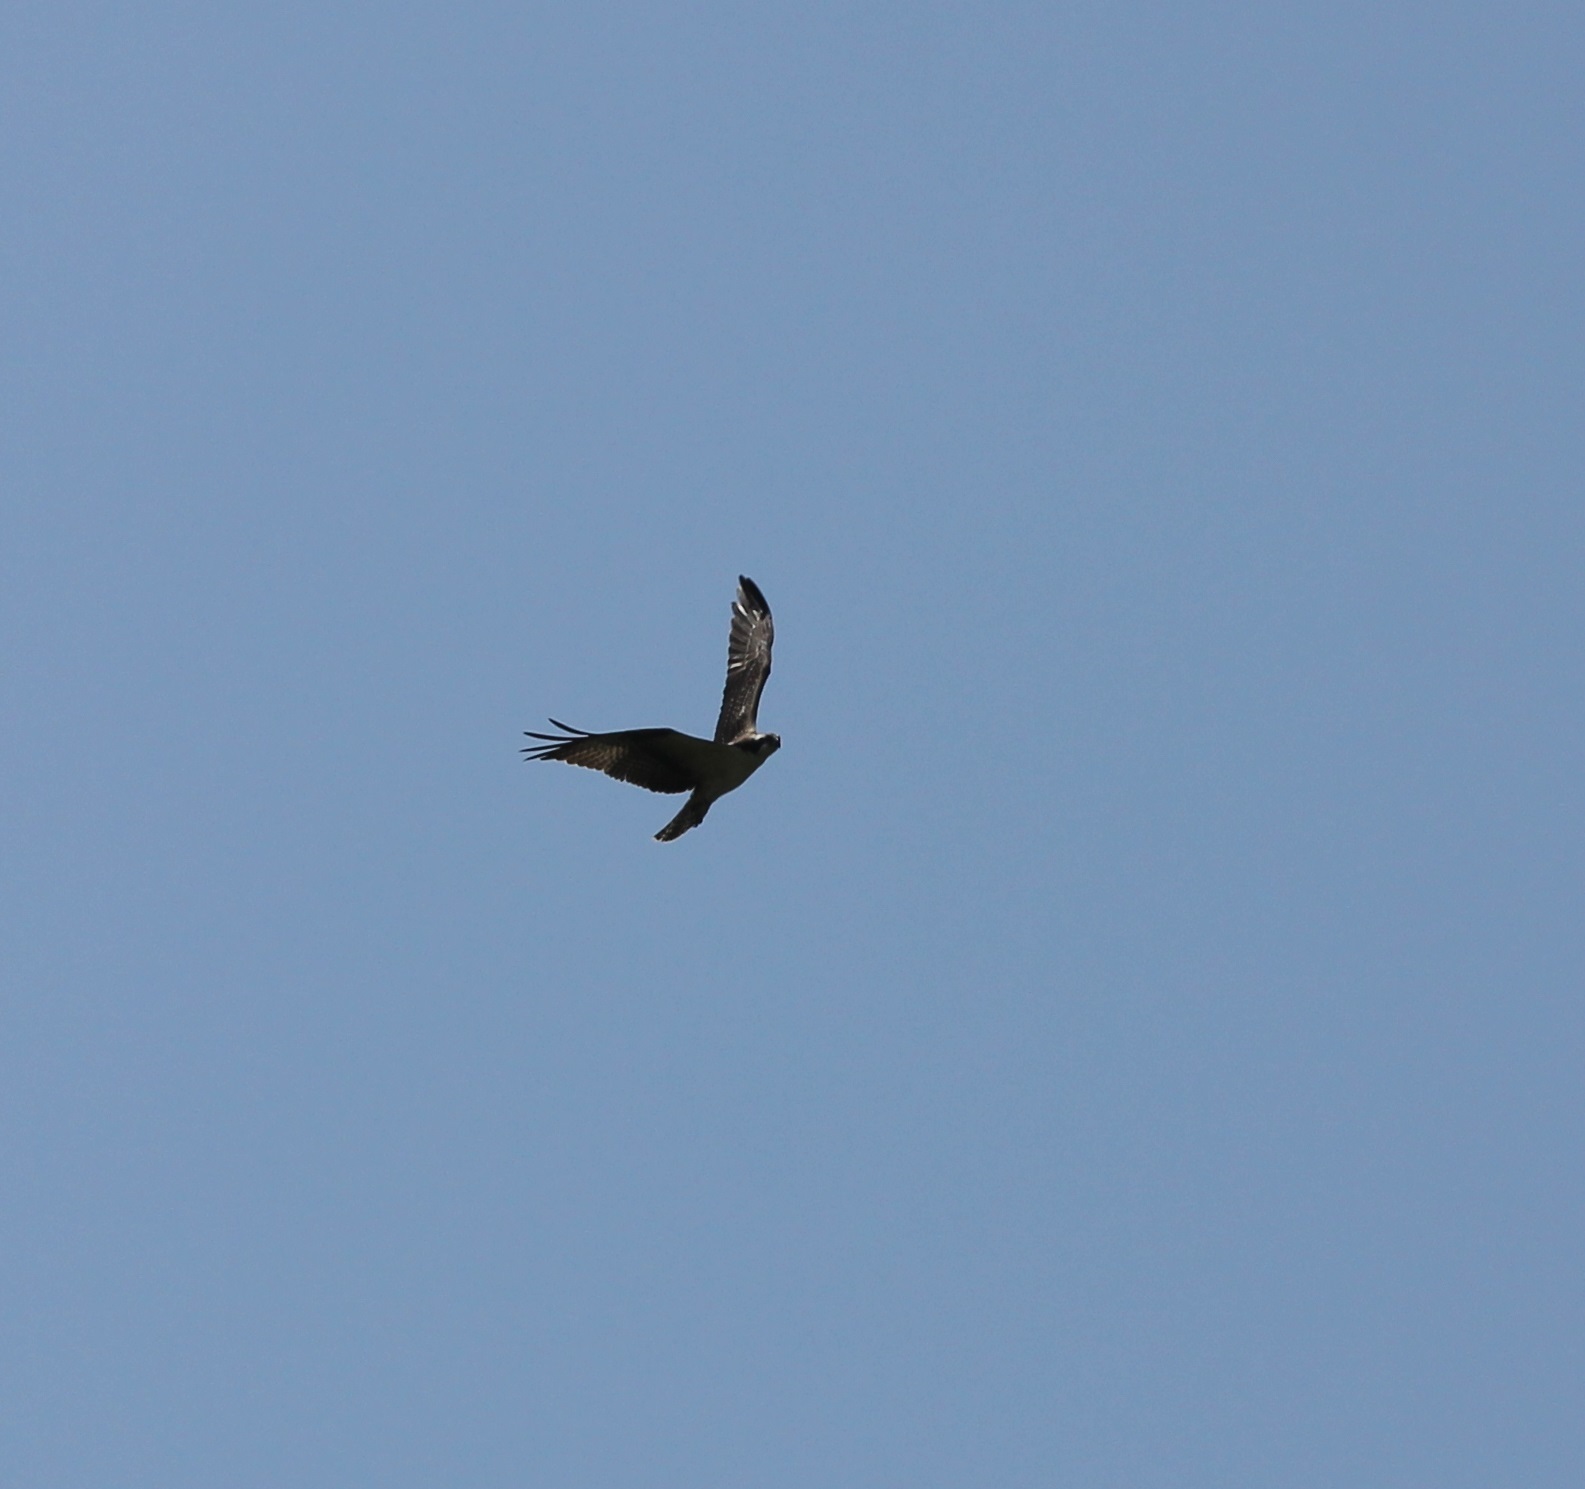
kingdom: Animalia
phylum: Chordata
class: Aves
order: Accipitriformes
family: Pandionidae
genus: Pandion
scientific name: Pandion haliaetus
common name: Osprey
